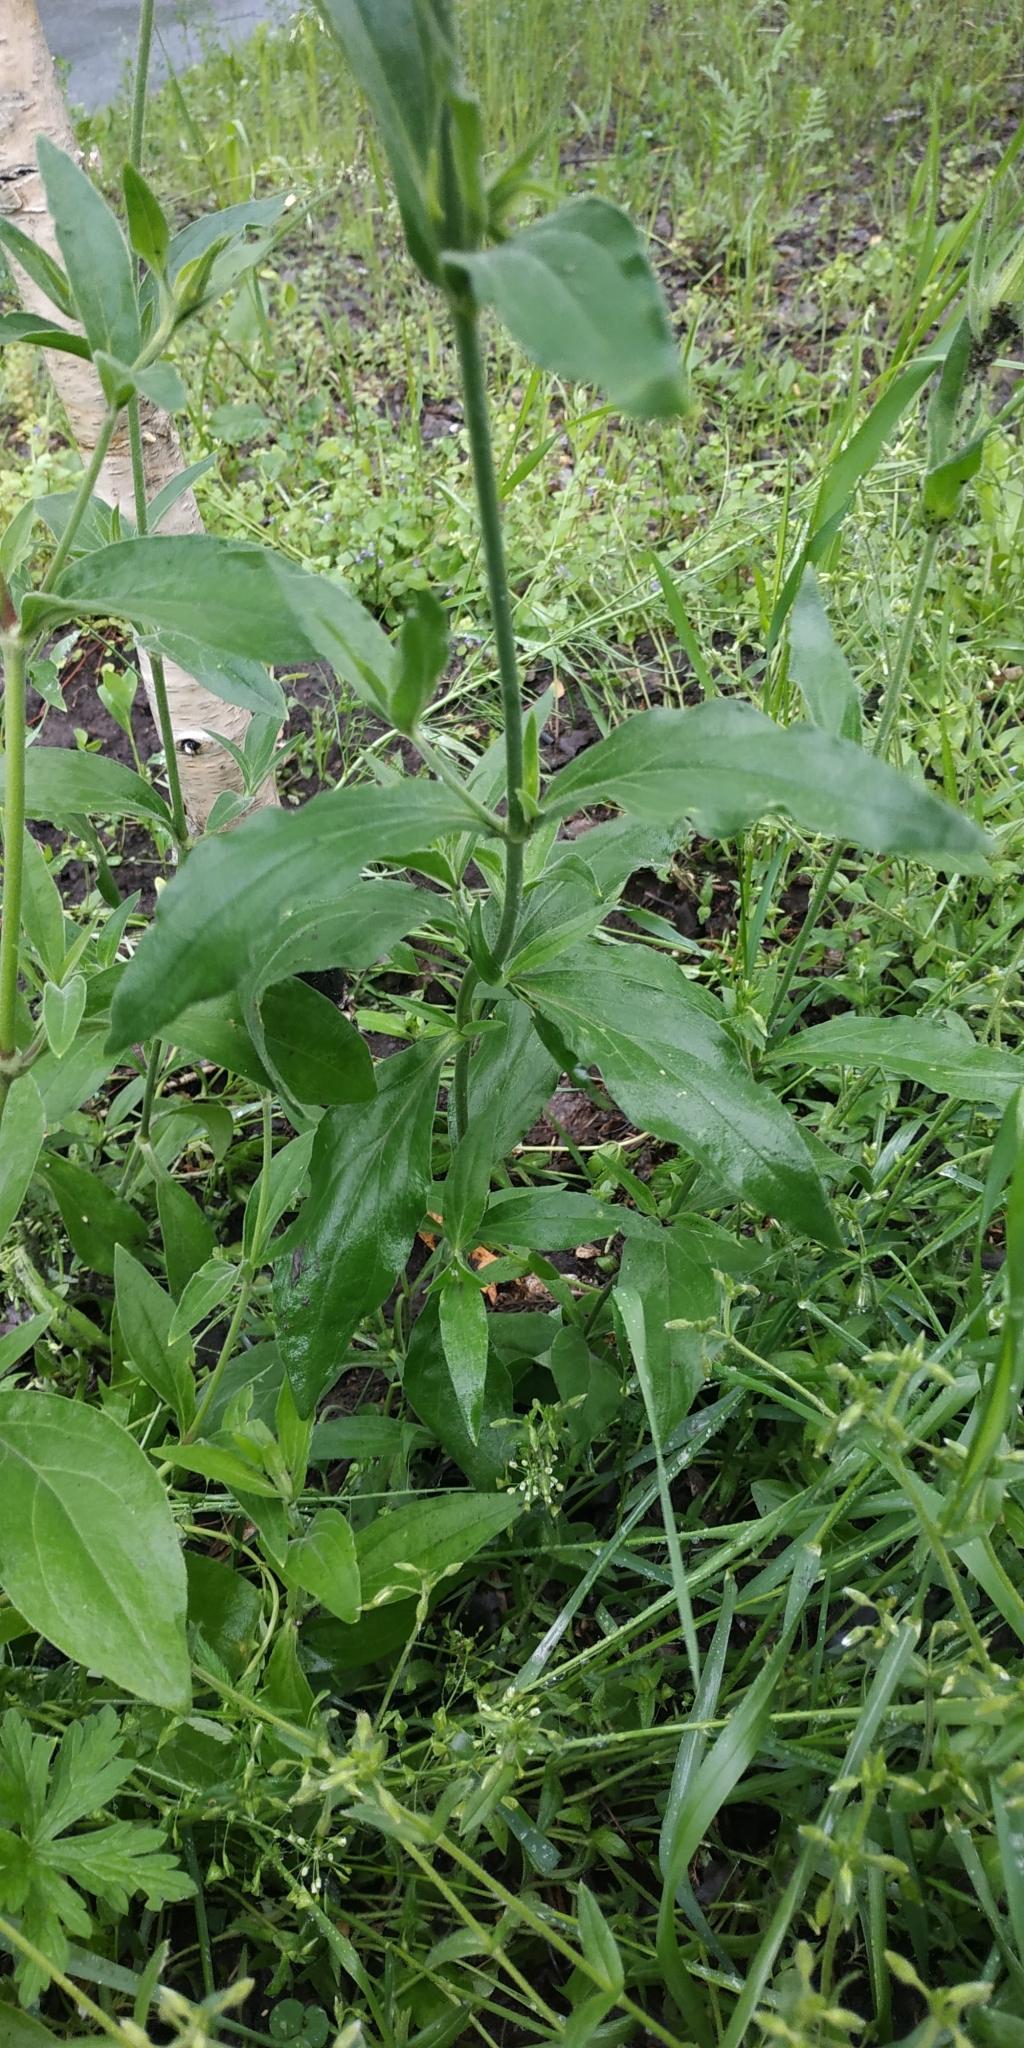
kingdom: Plantae
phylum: Tracheophyta
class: Magnoliopsida
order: Caryophyllales
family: Caryophyllaceae
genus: Silene
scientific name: Silene latifolia
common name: White campion
